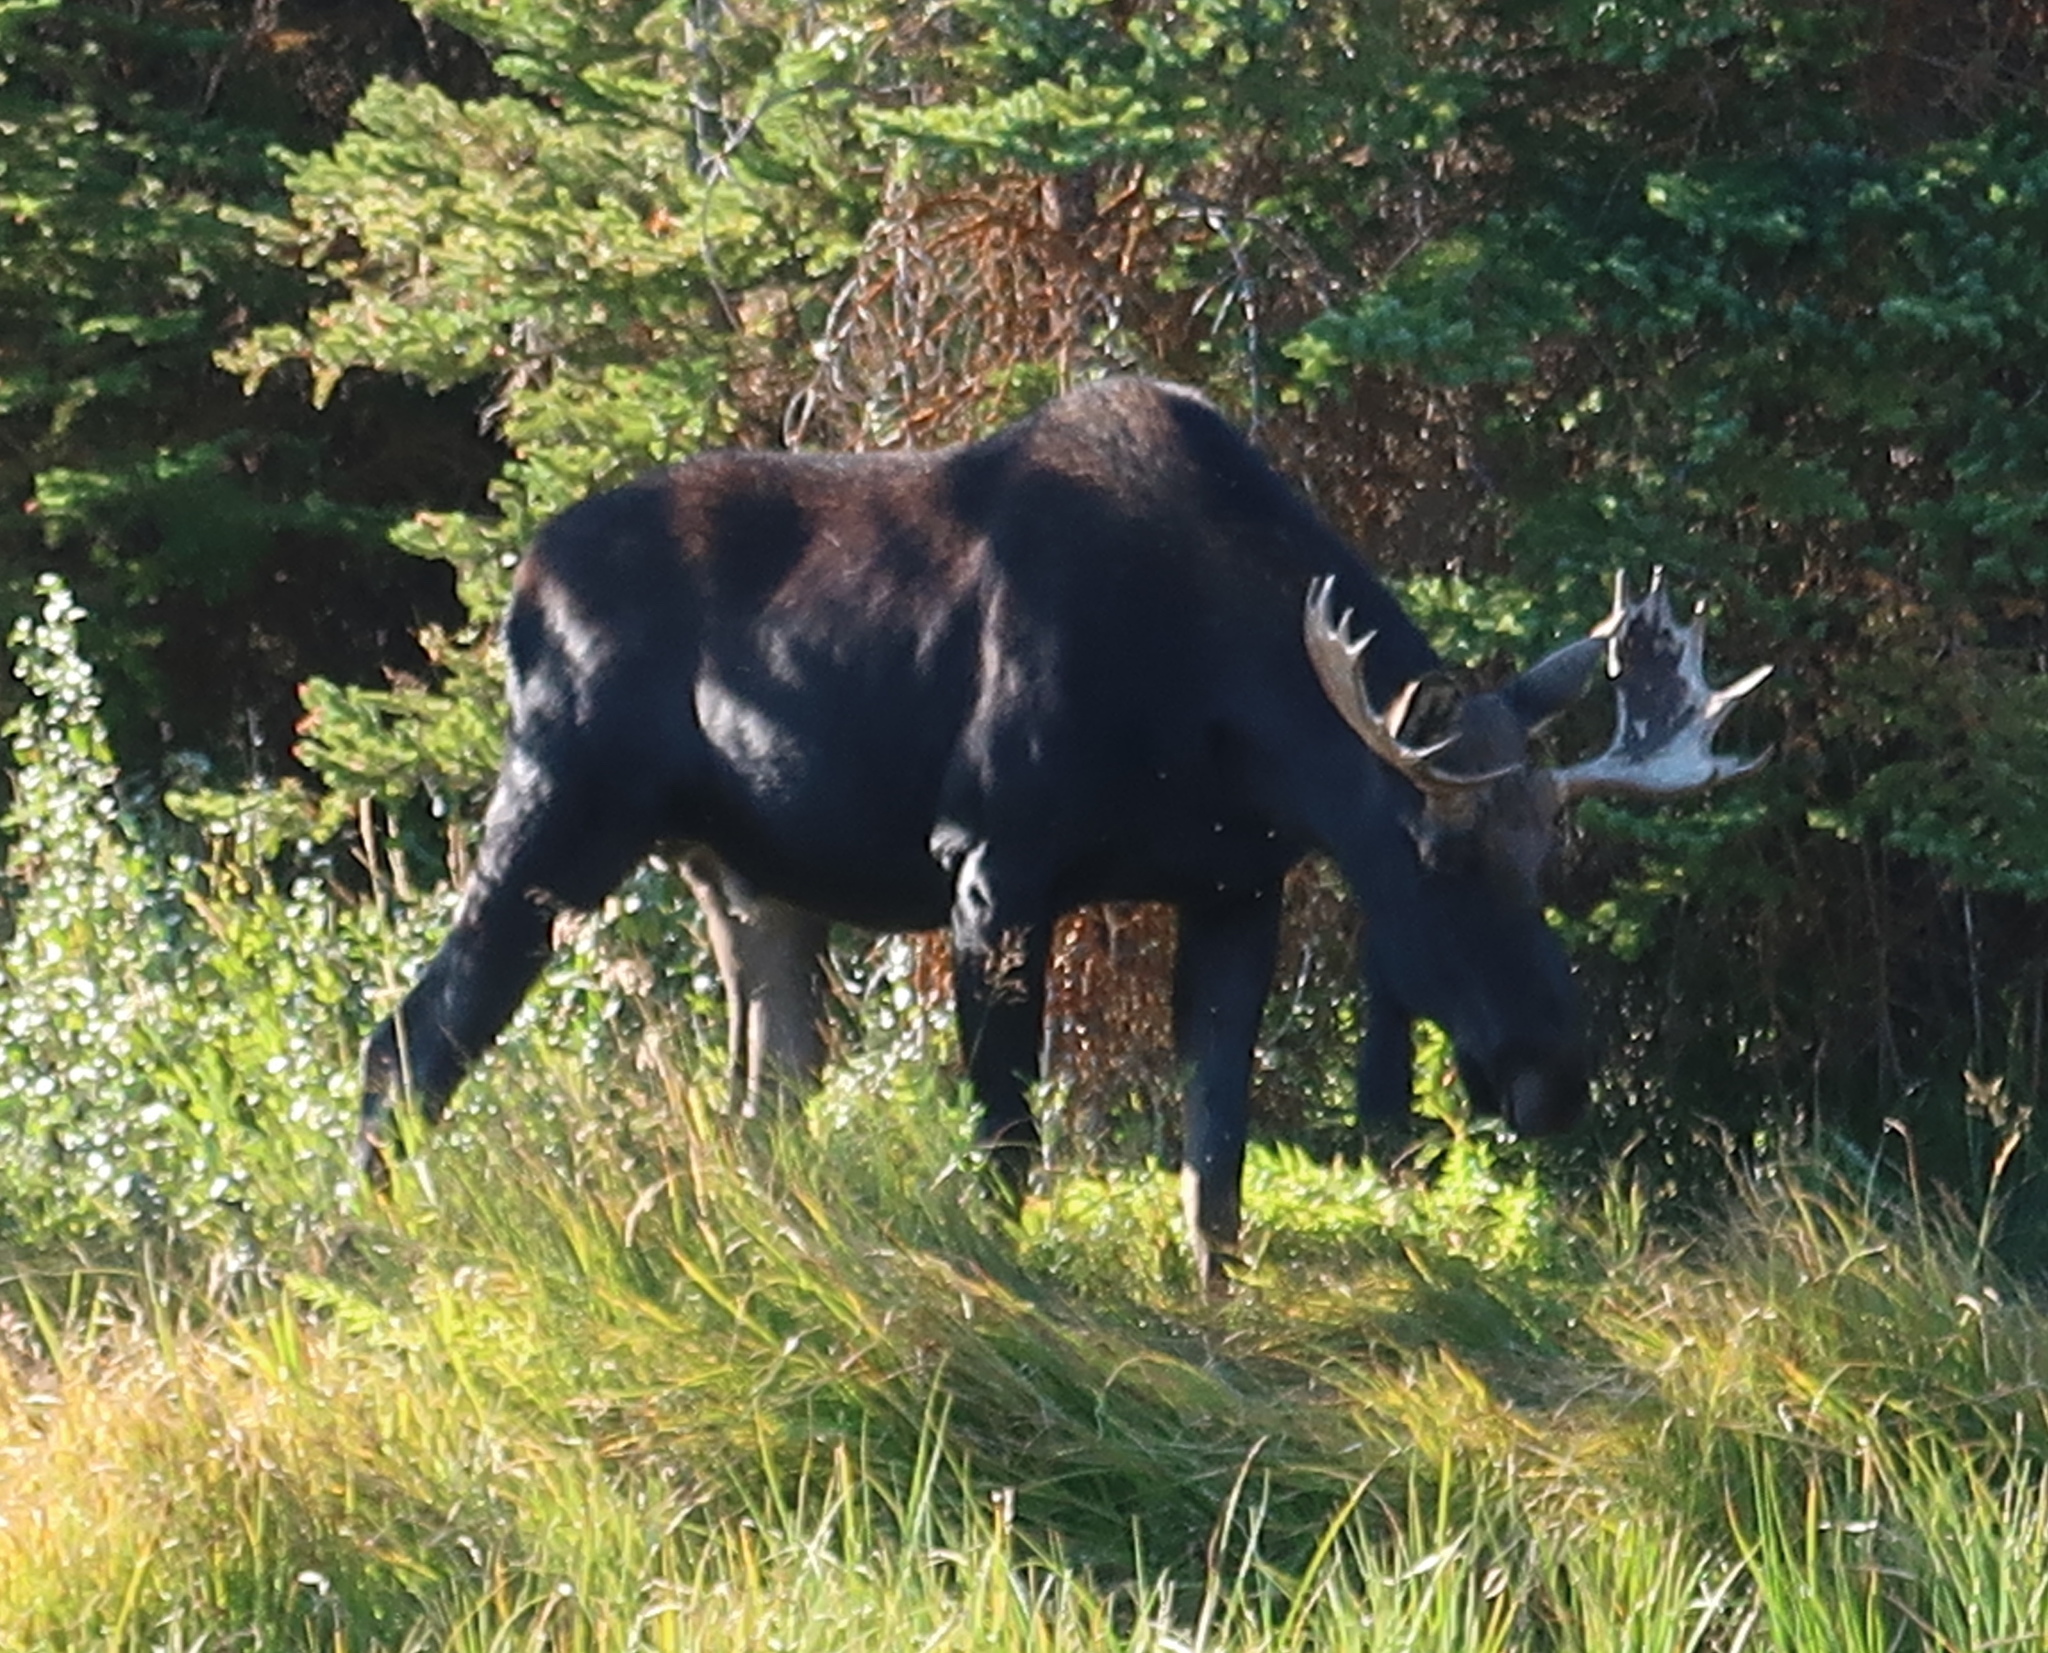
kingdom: Animalia
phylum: Chordata
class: Mammalia
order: Artiodactyla
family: Cervidae
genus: Alces
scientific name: Alces alces
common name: Moose
